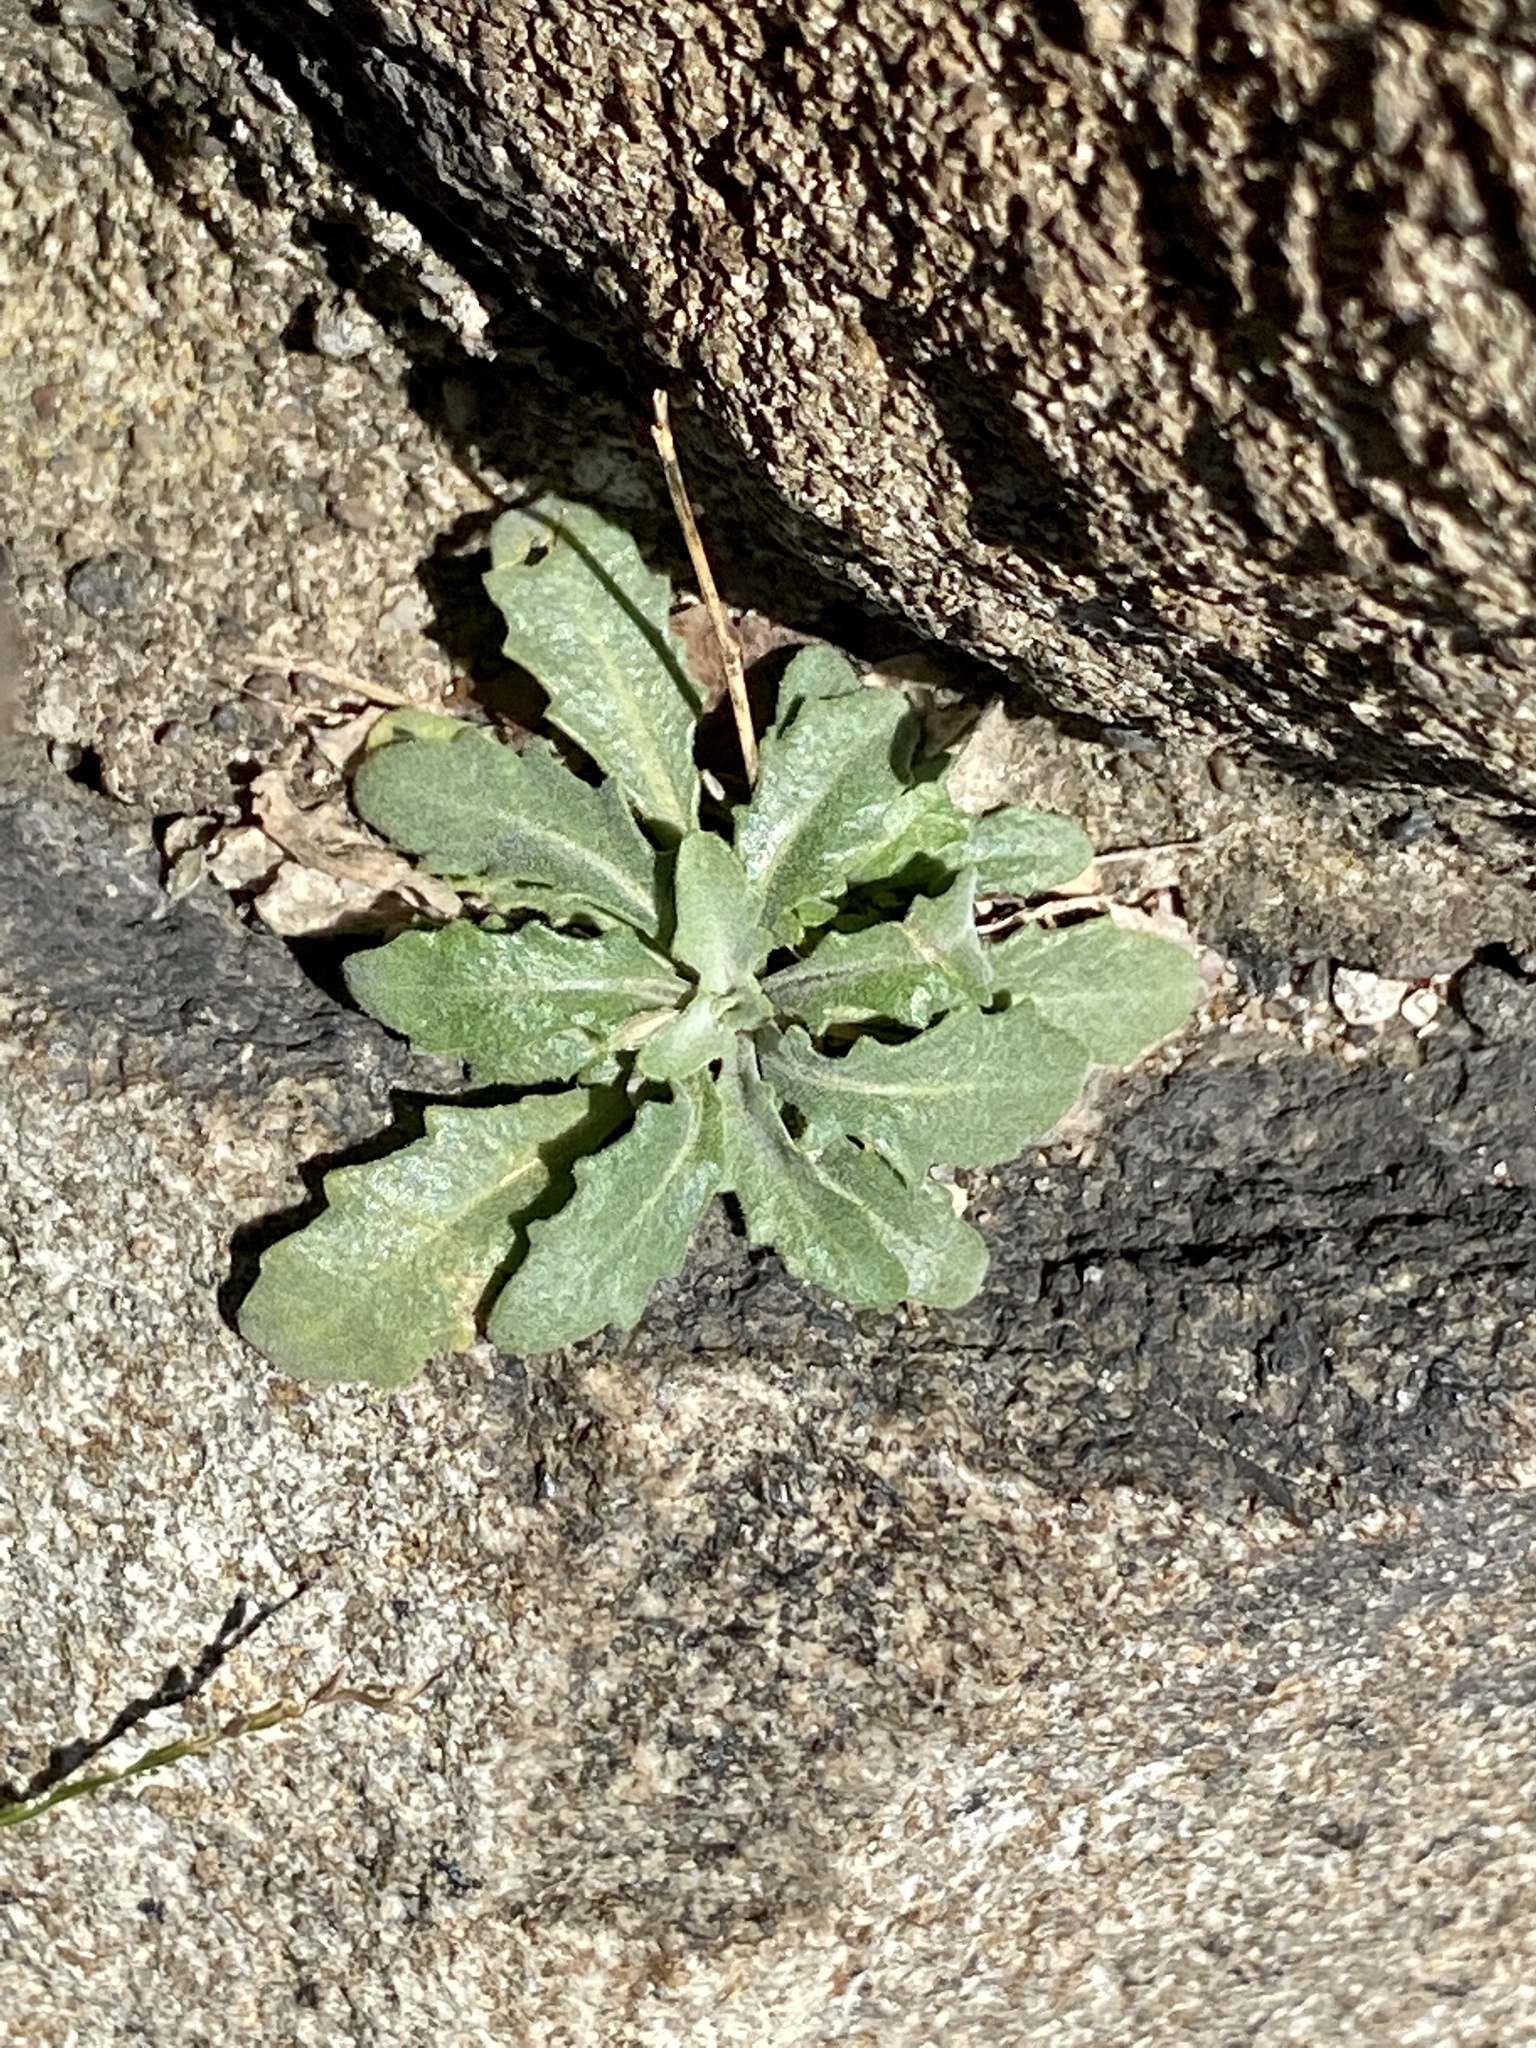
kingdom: Plantae
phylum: Tracheophyta
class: Magnoliopsida
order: Brassicales
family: Brassicaceae
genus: Arabidopsis
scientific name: Arabidopsis lyrata
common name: Lyrate rockcress
